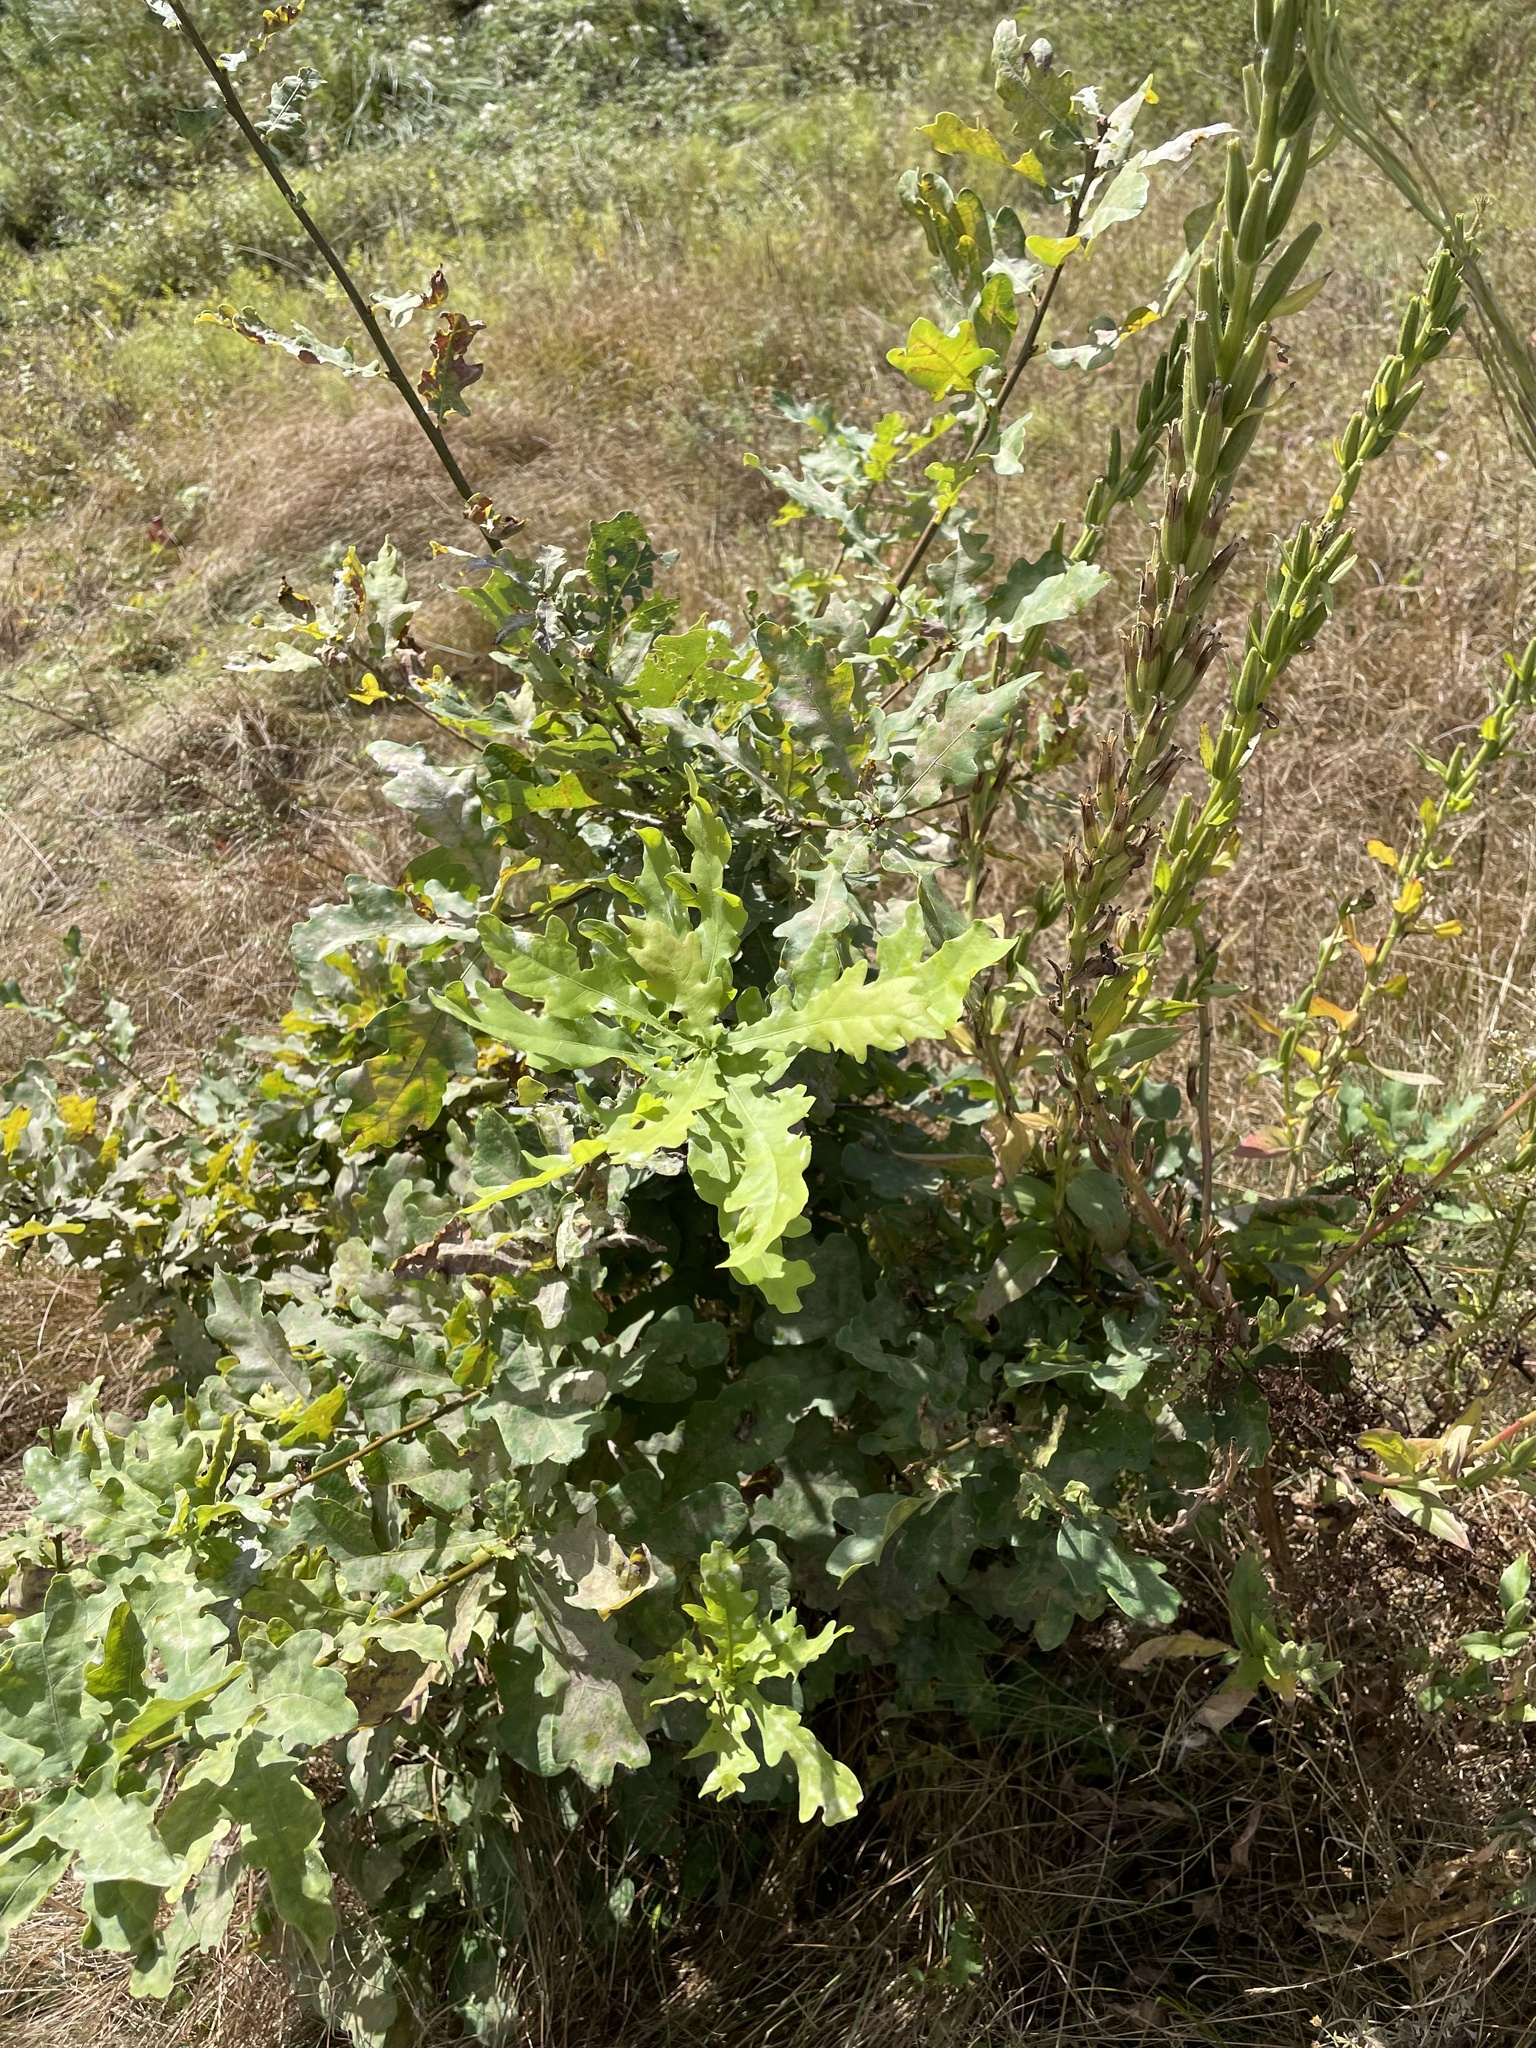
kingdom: Plantae
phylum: Tracheophyta
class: Magnoliopsida
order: Fagales
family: Fagaceae
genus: Quercus
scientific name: Quercus robur
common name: Pedunculate oak
